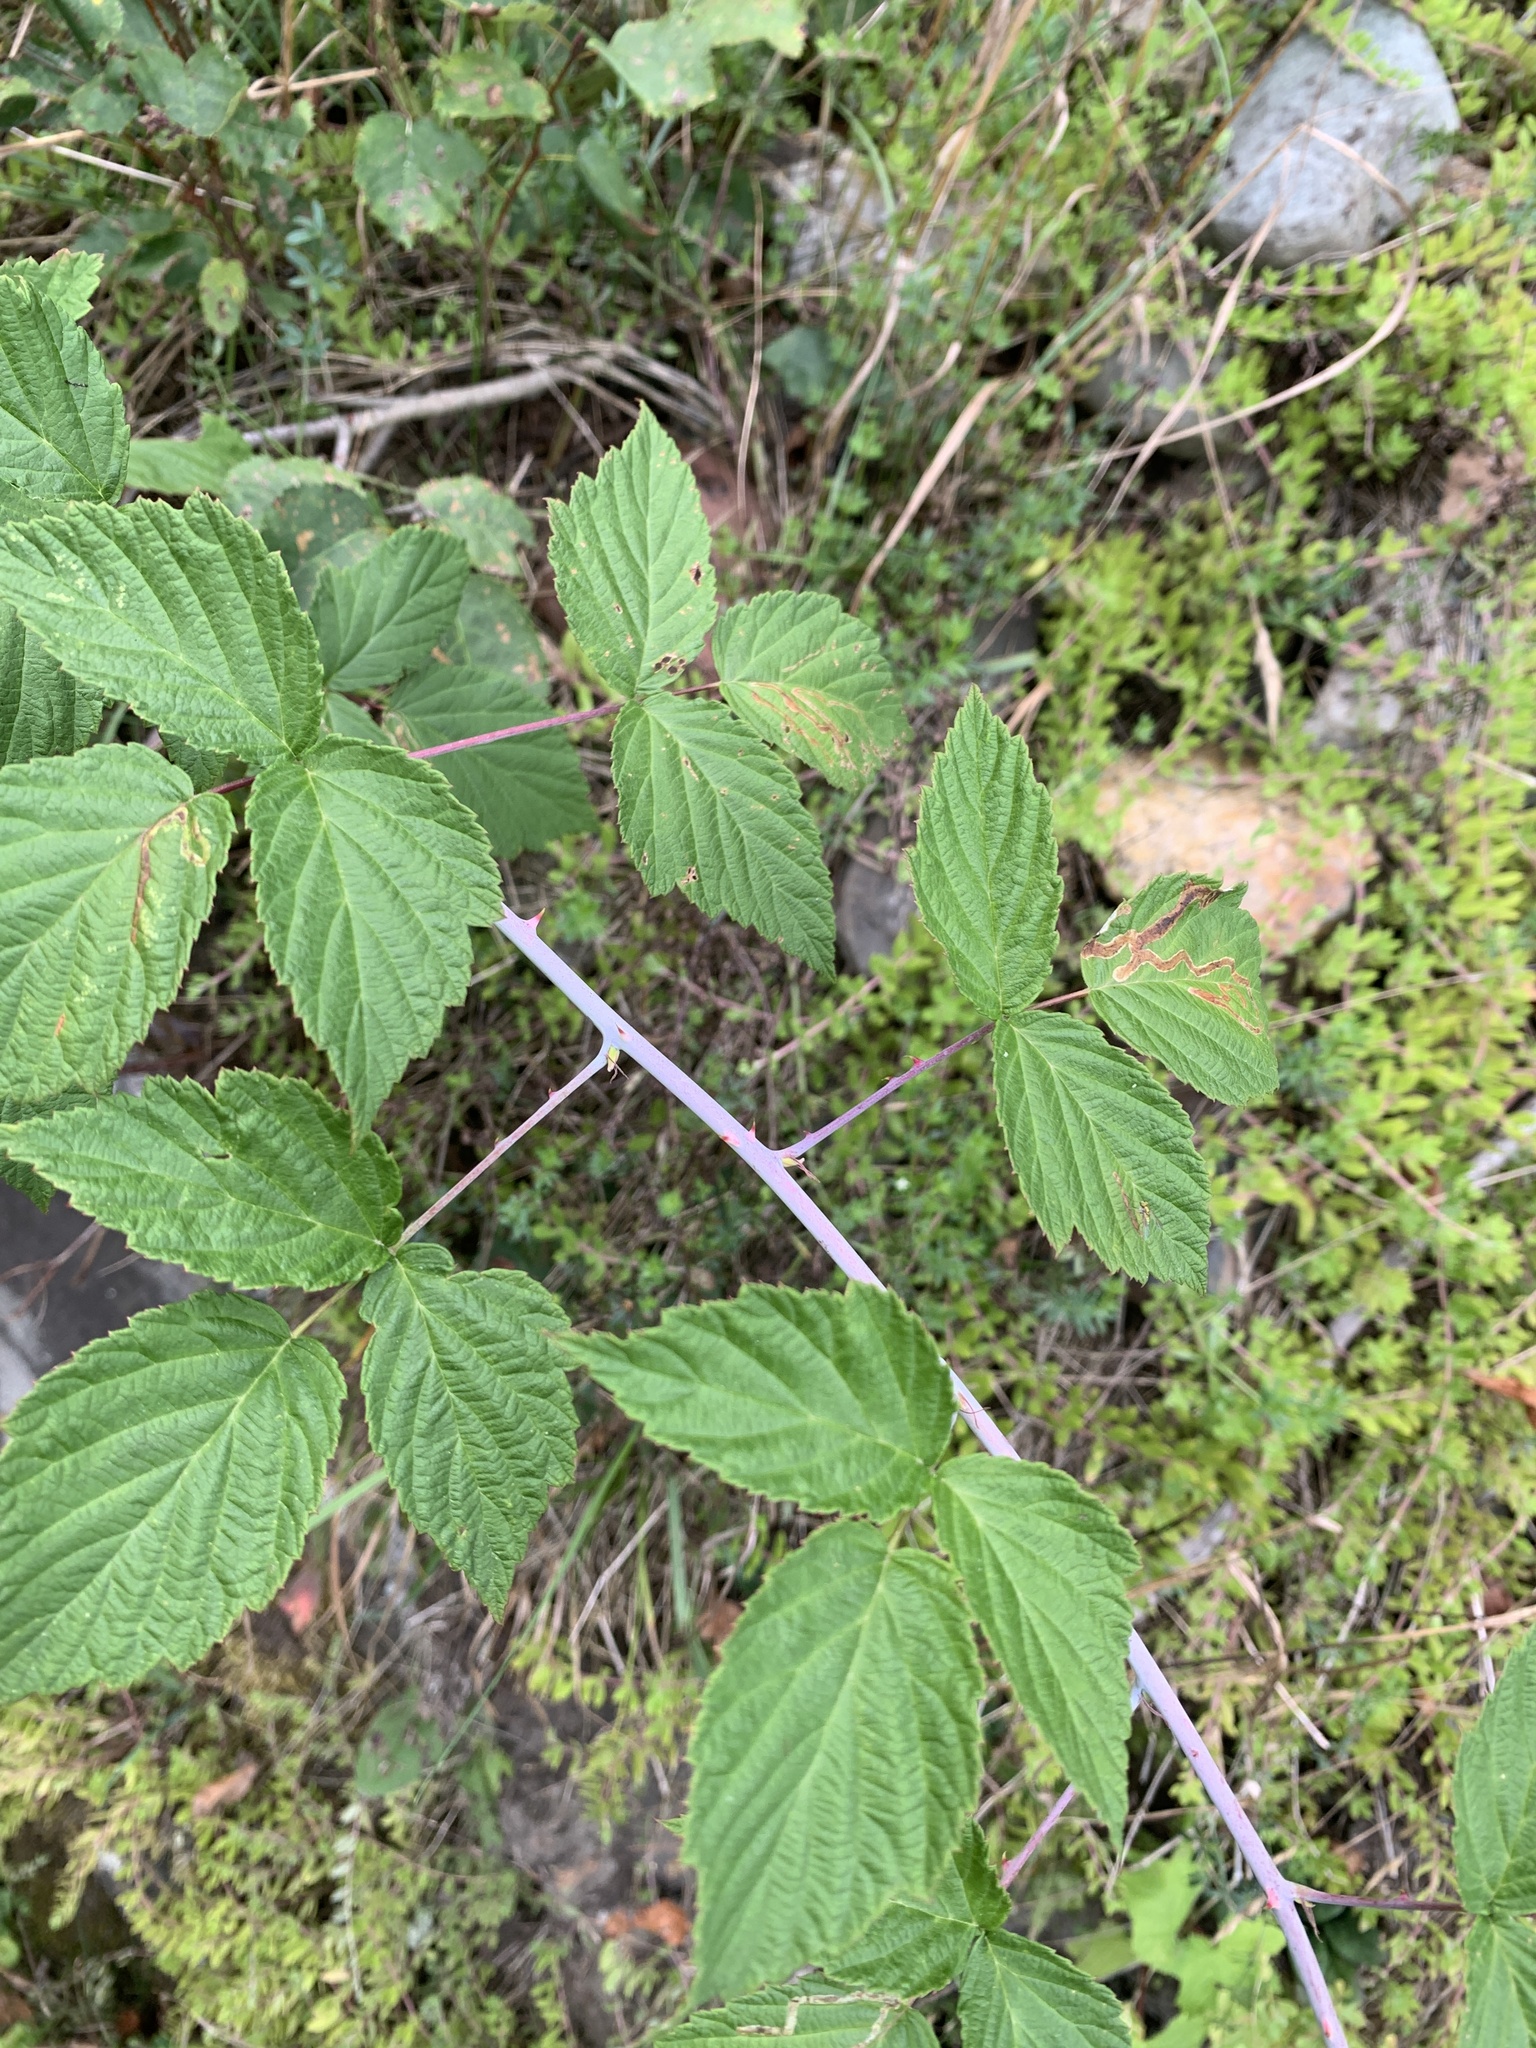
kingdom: Plantae
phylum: Tracheophyta
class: Magnoliopsida
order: Rosales
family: Rosaceae
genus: Rubus
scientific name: Rubus occidentalis
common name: Black raspberry
